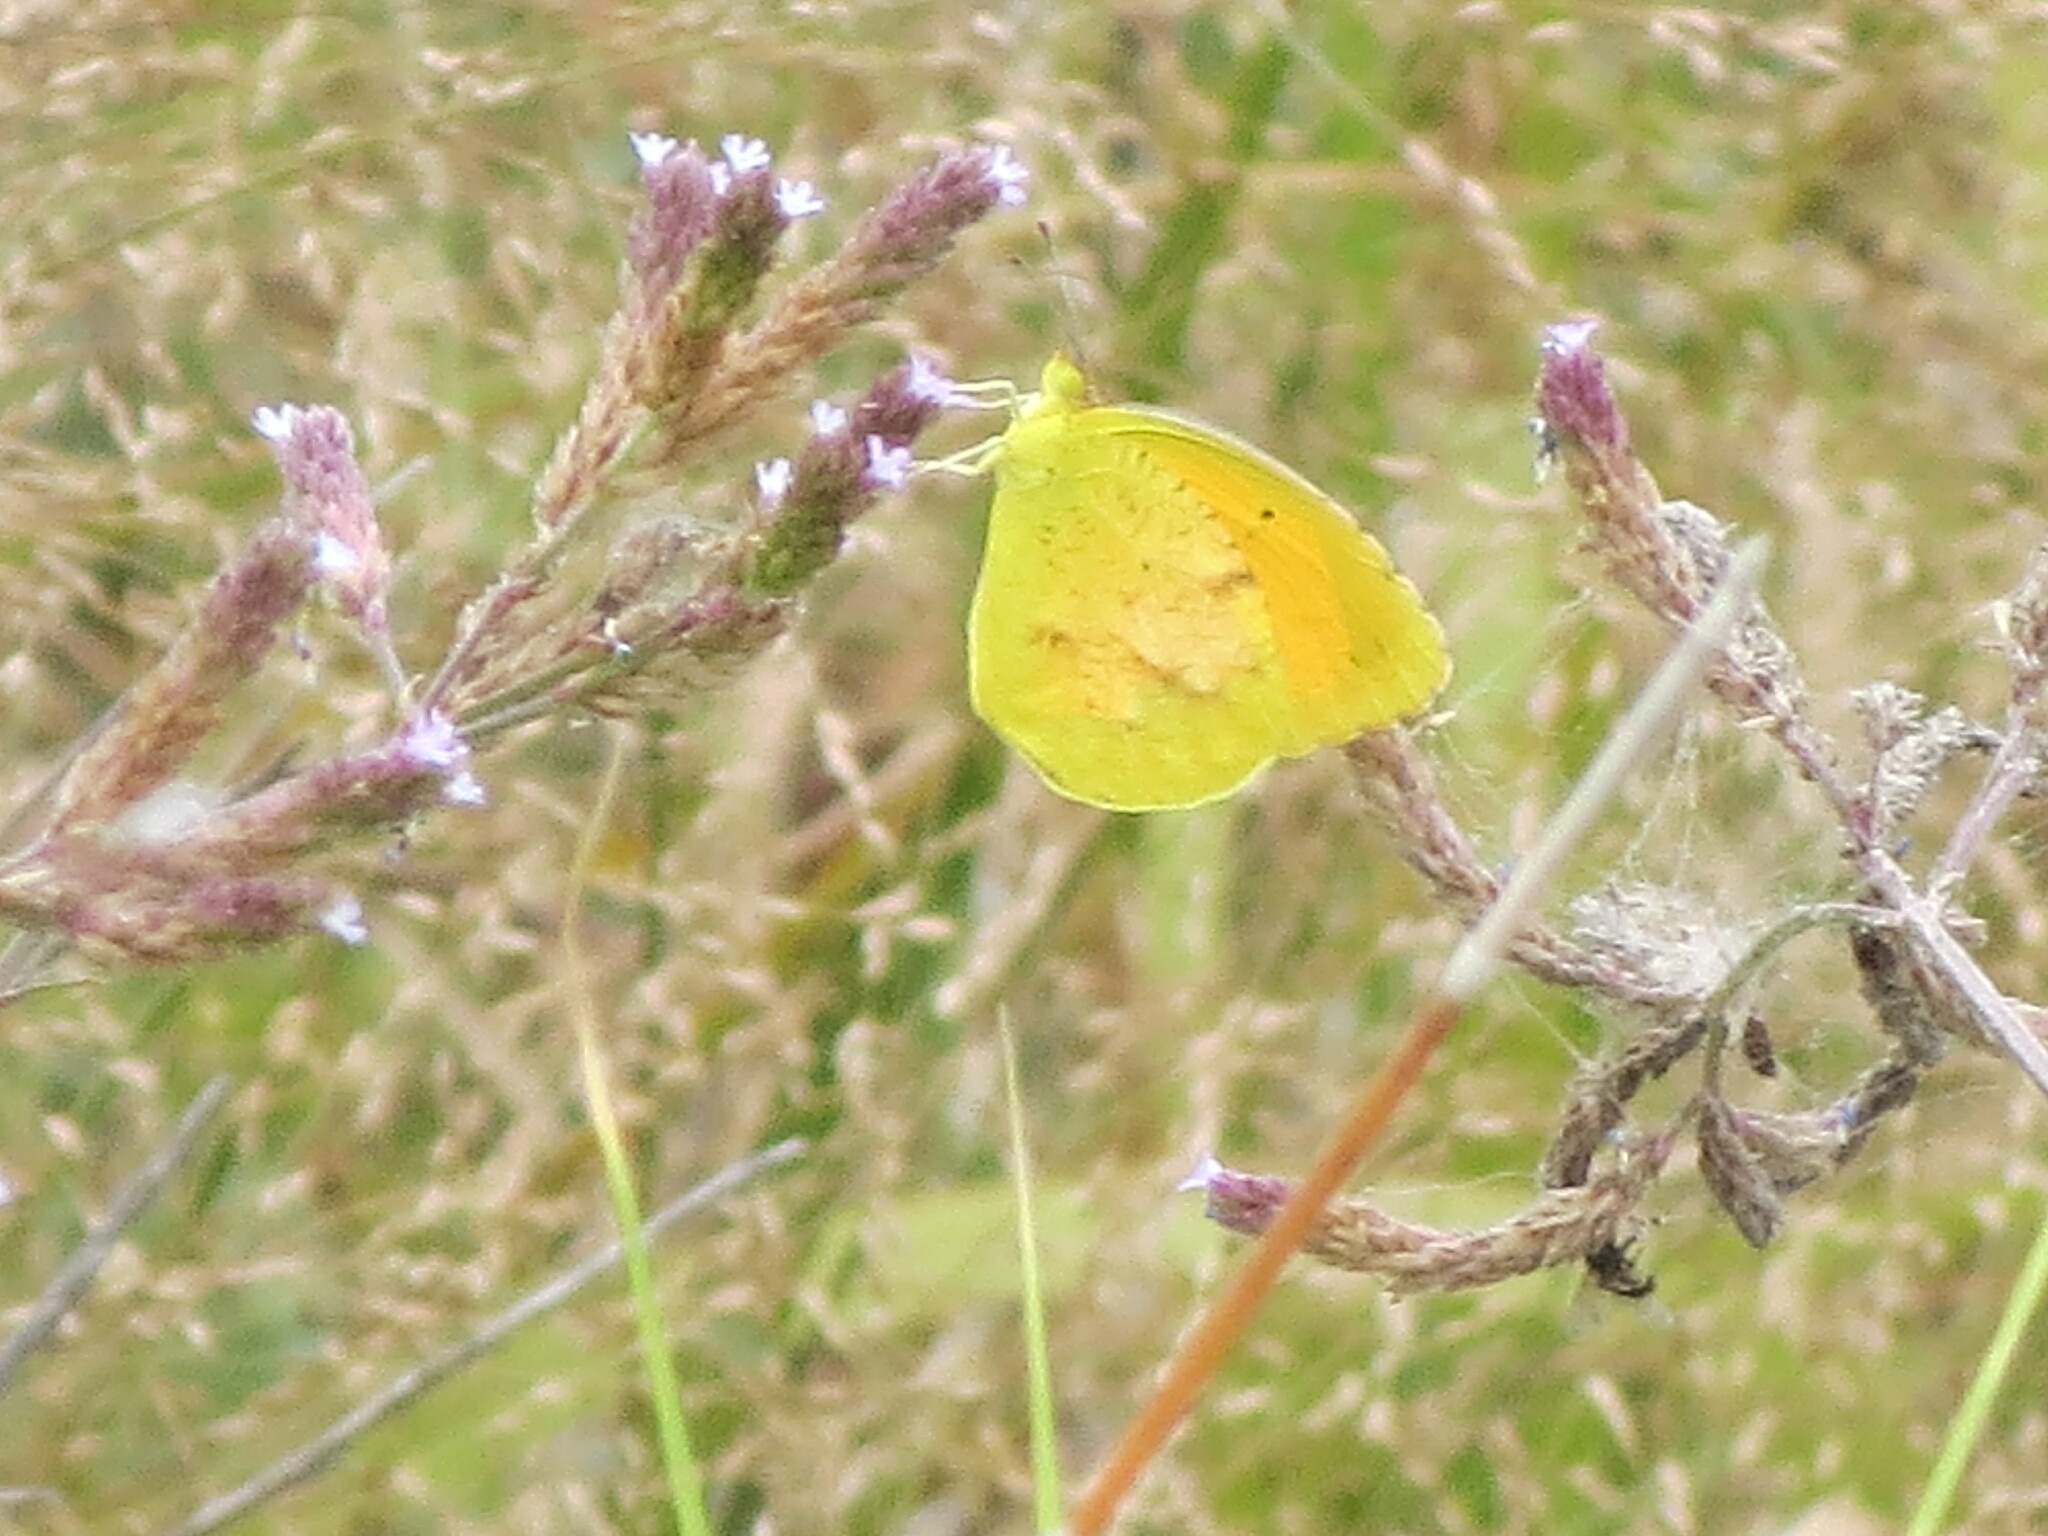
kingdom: Animalia
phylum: Arthropoda
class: Insecta
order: Lepidoptera
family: Pieridae
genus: Abaeis
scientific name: Abaeis nicippe
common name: Sleepy orange
